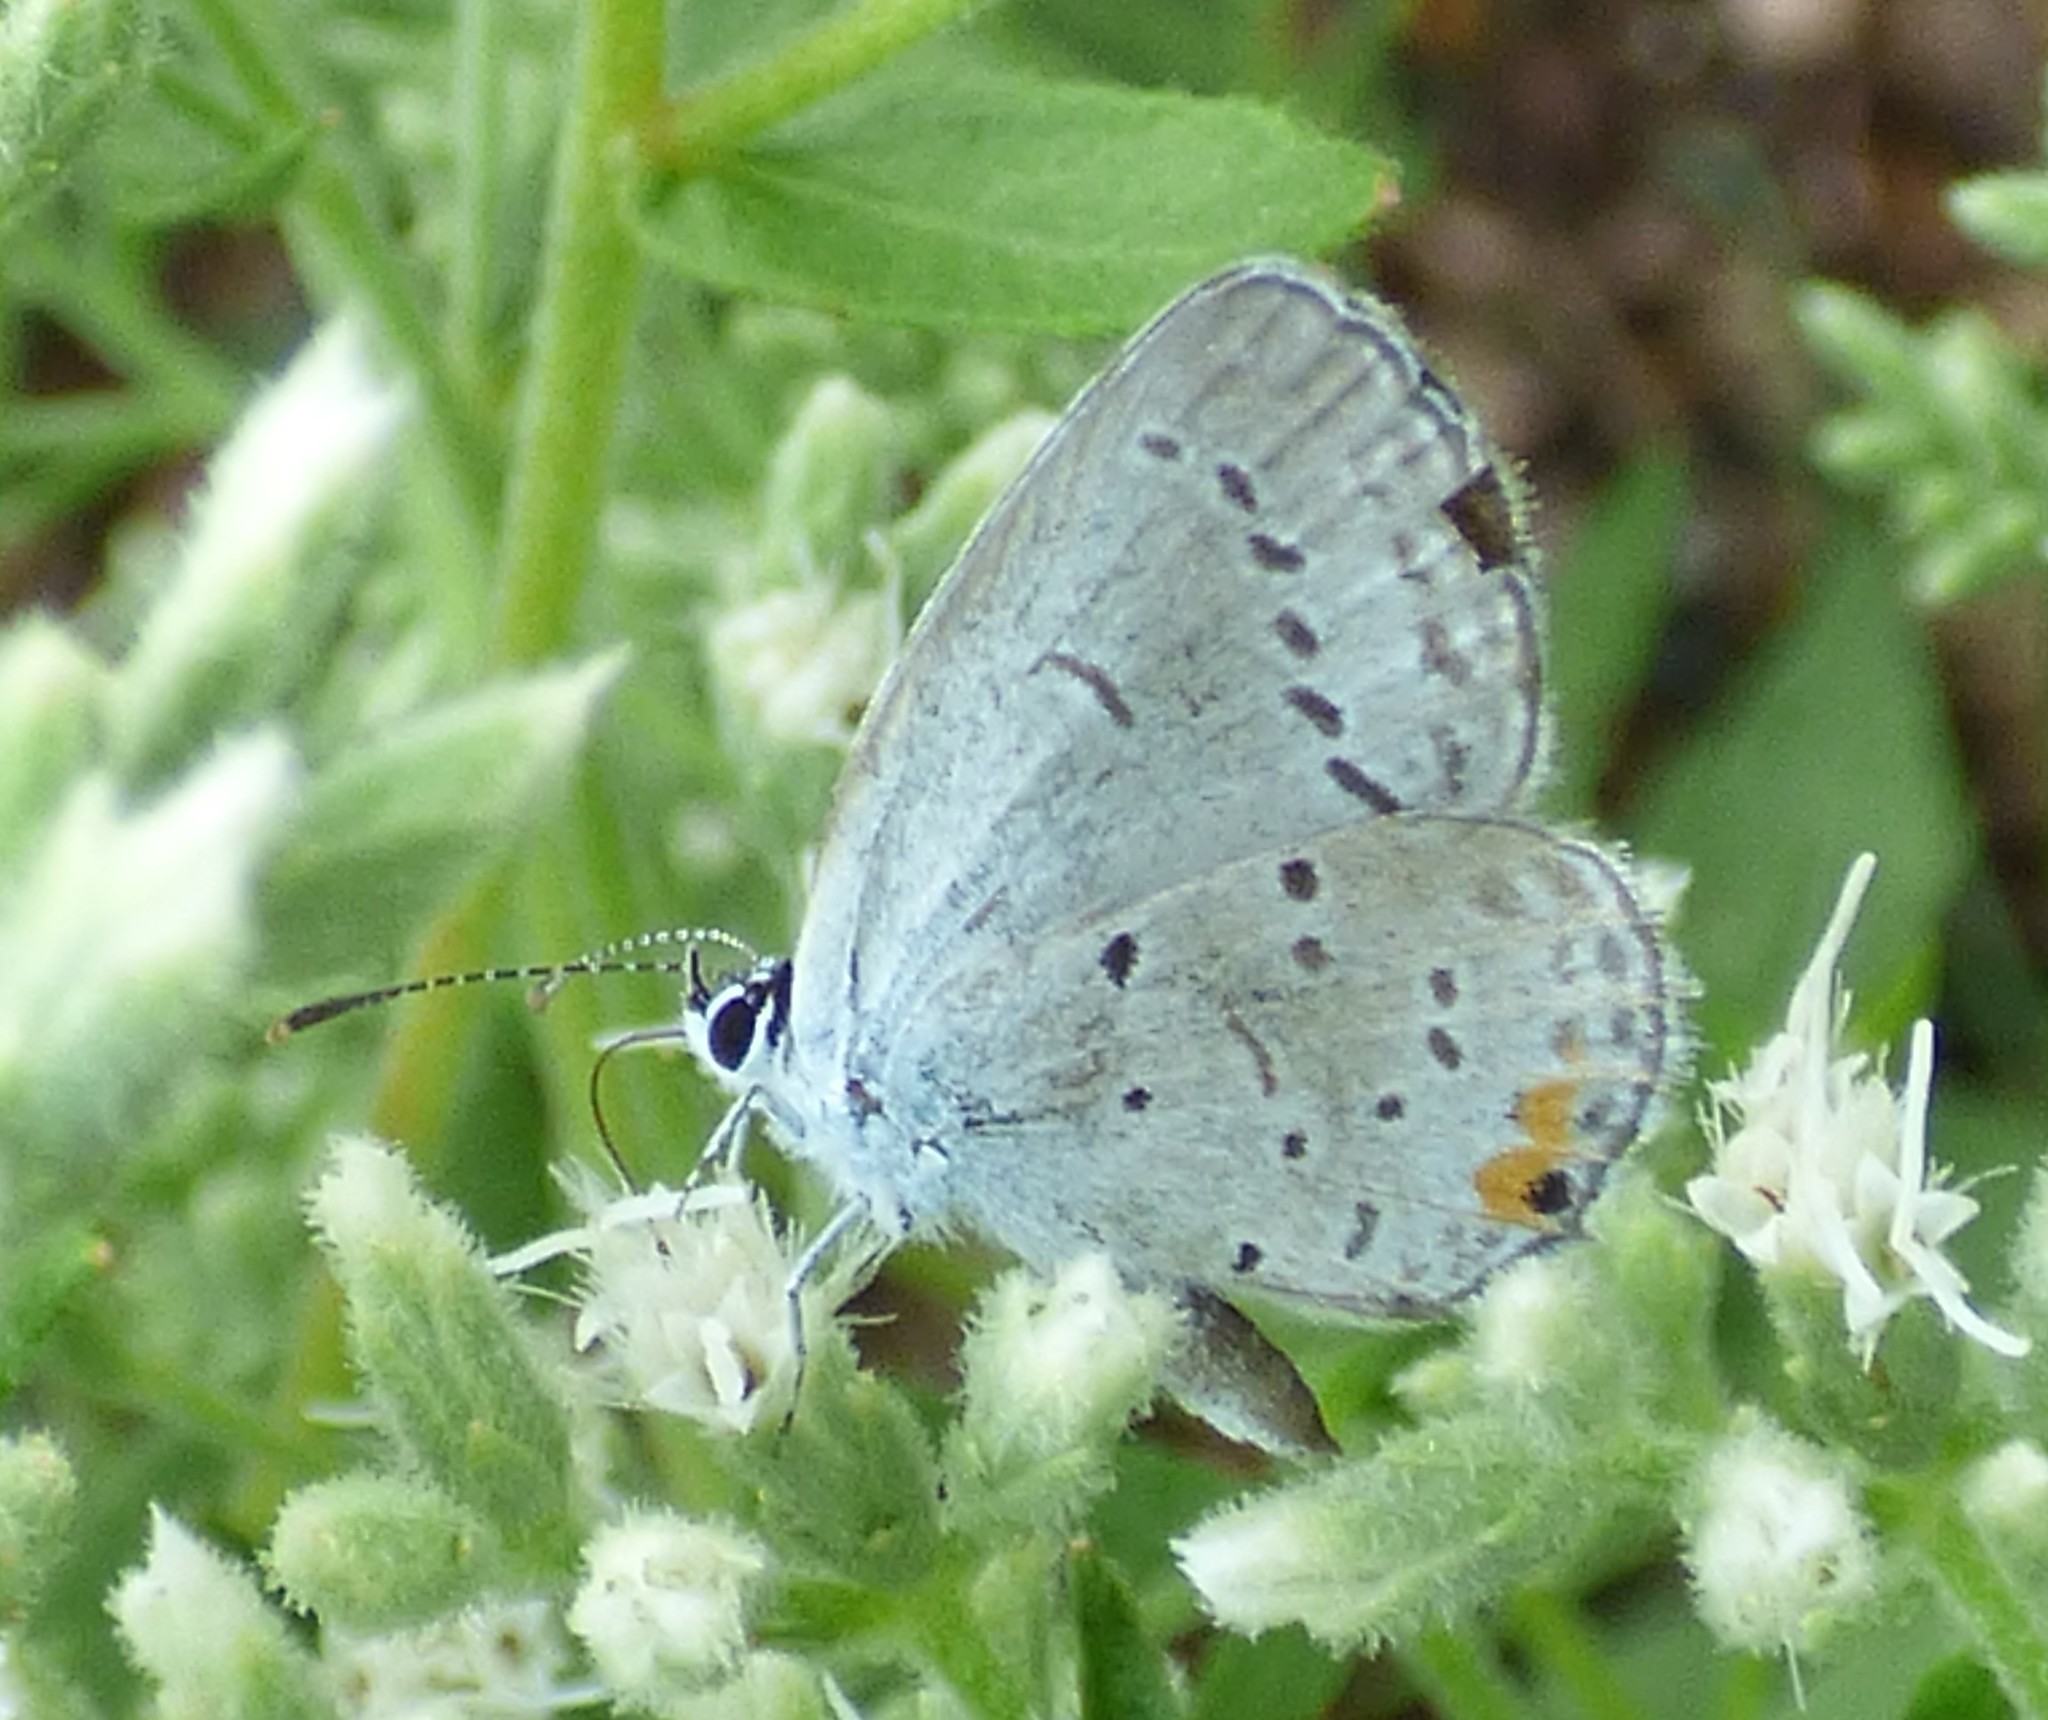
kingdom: Animalia
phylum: Arthropoda
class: Insecta
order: Lepidoptera
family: Lycaenidae
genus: Elkalyce
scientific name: Elkalyce comyntas
